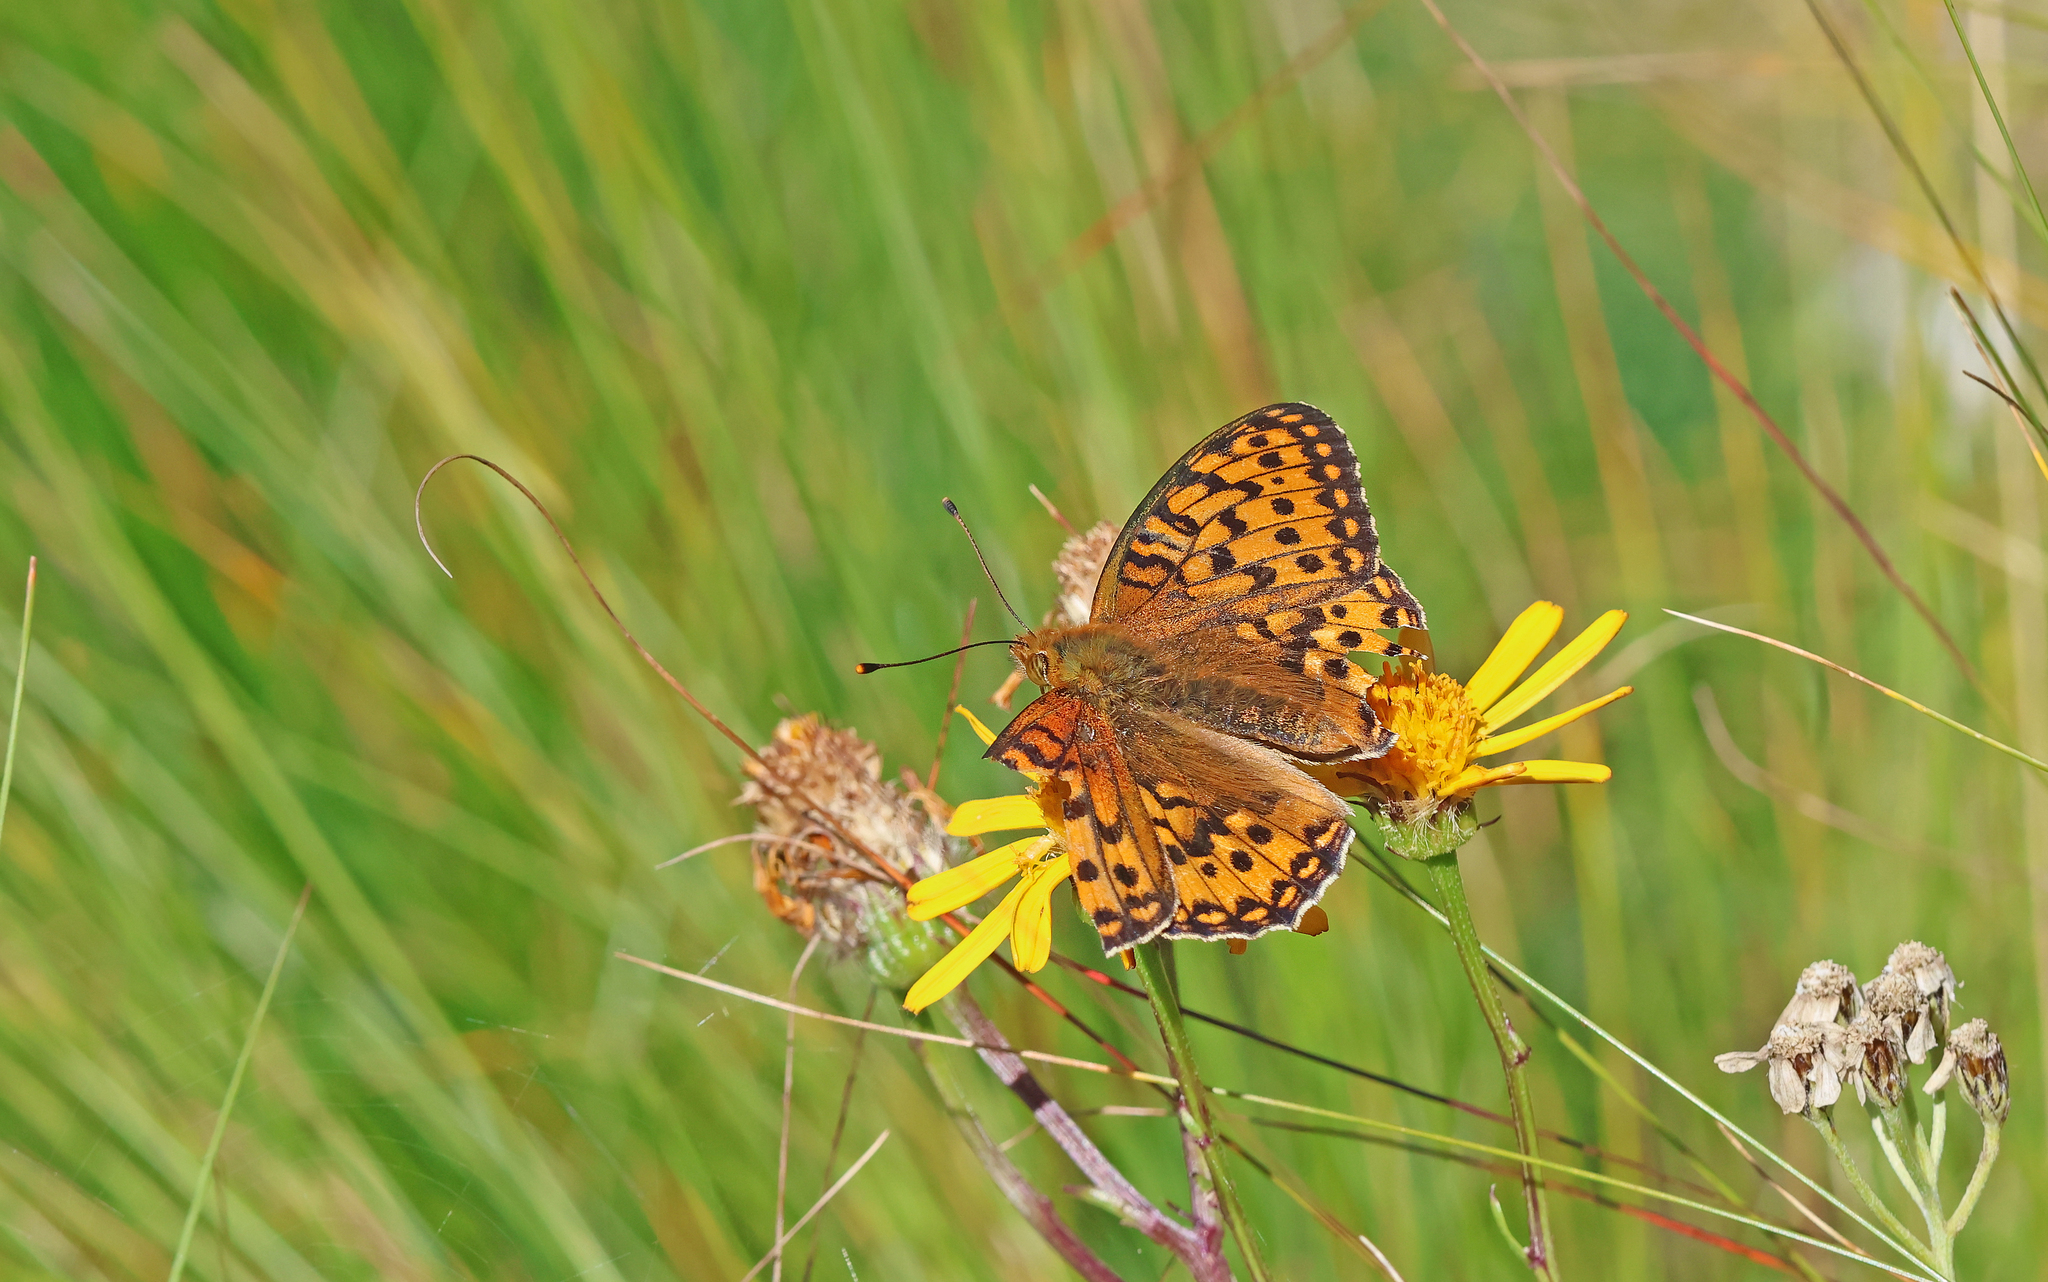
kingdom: Animalia
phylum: Arthropoda
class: Insecta
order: Lepidoptera
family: Nymphalidae
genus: Speyeria
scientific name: Speyeria aglaja
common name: Dark green fritillary
